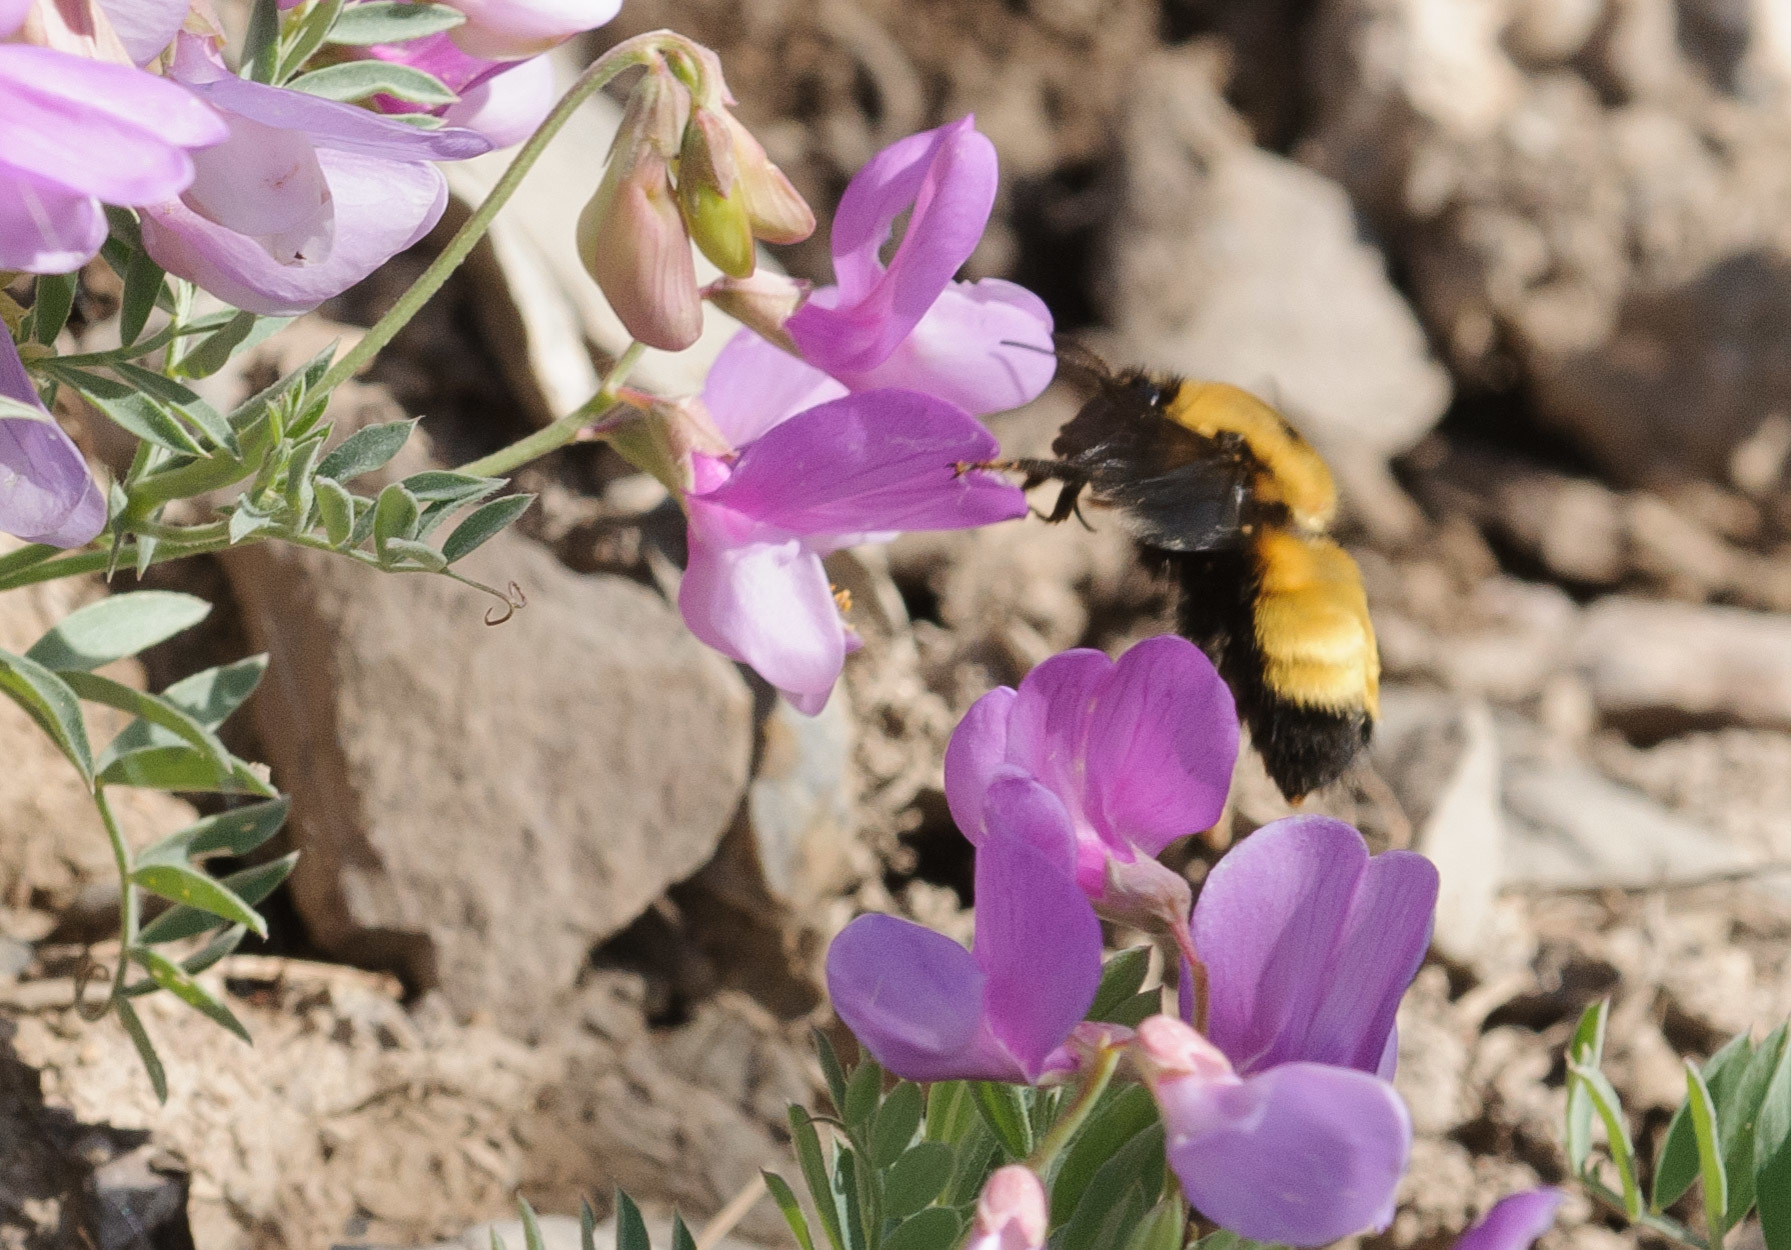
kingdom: Animalia
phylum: Arthropoda
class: Insecta
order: Hymenoptera
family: Apidae
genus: Bombus
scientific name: Bombus nevadensis
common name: Nevada bumble bee
